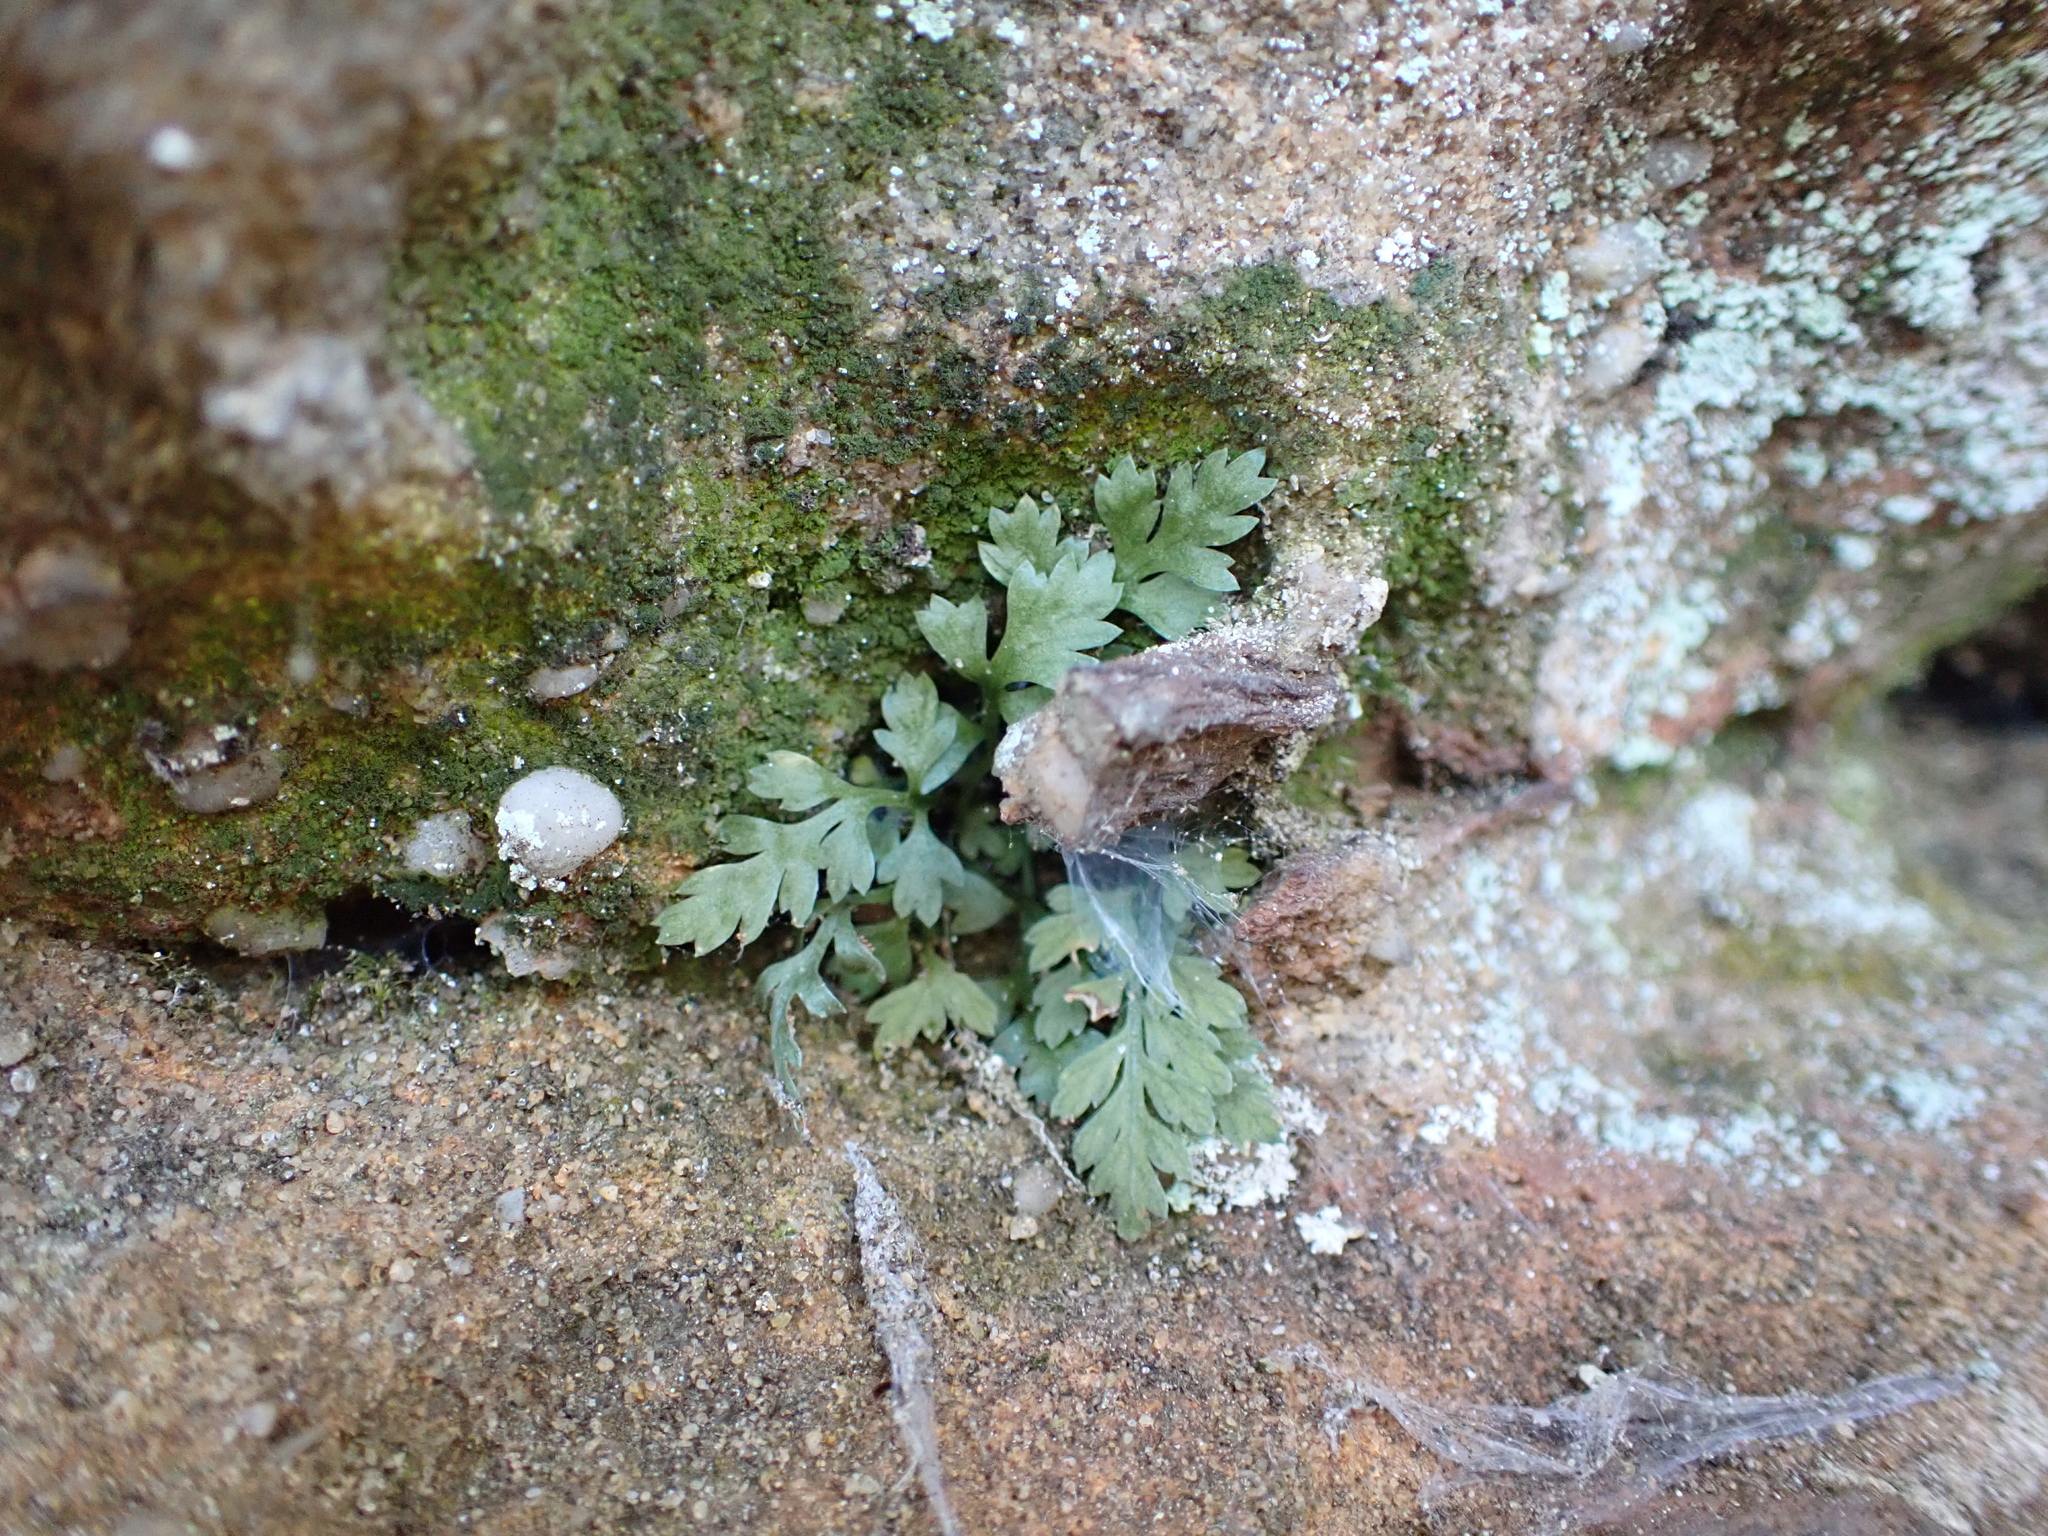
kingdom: Plantae
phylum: Tracheophyta
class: Polypodiopsida
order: Polypodiales
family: Aspleniaceae
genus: Asplenium
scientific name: Asplenium montanum
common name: Mountain spleenwort
